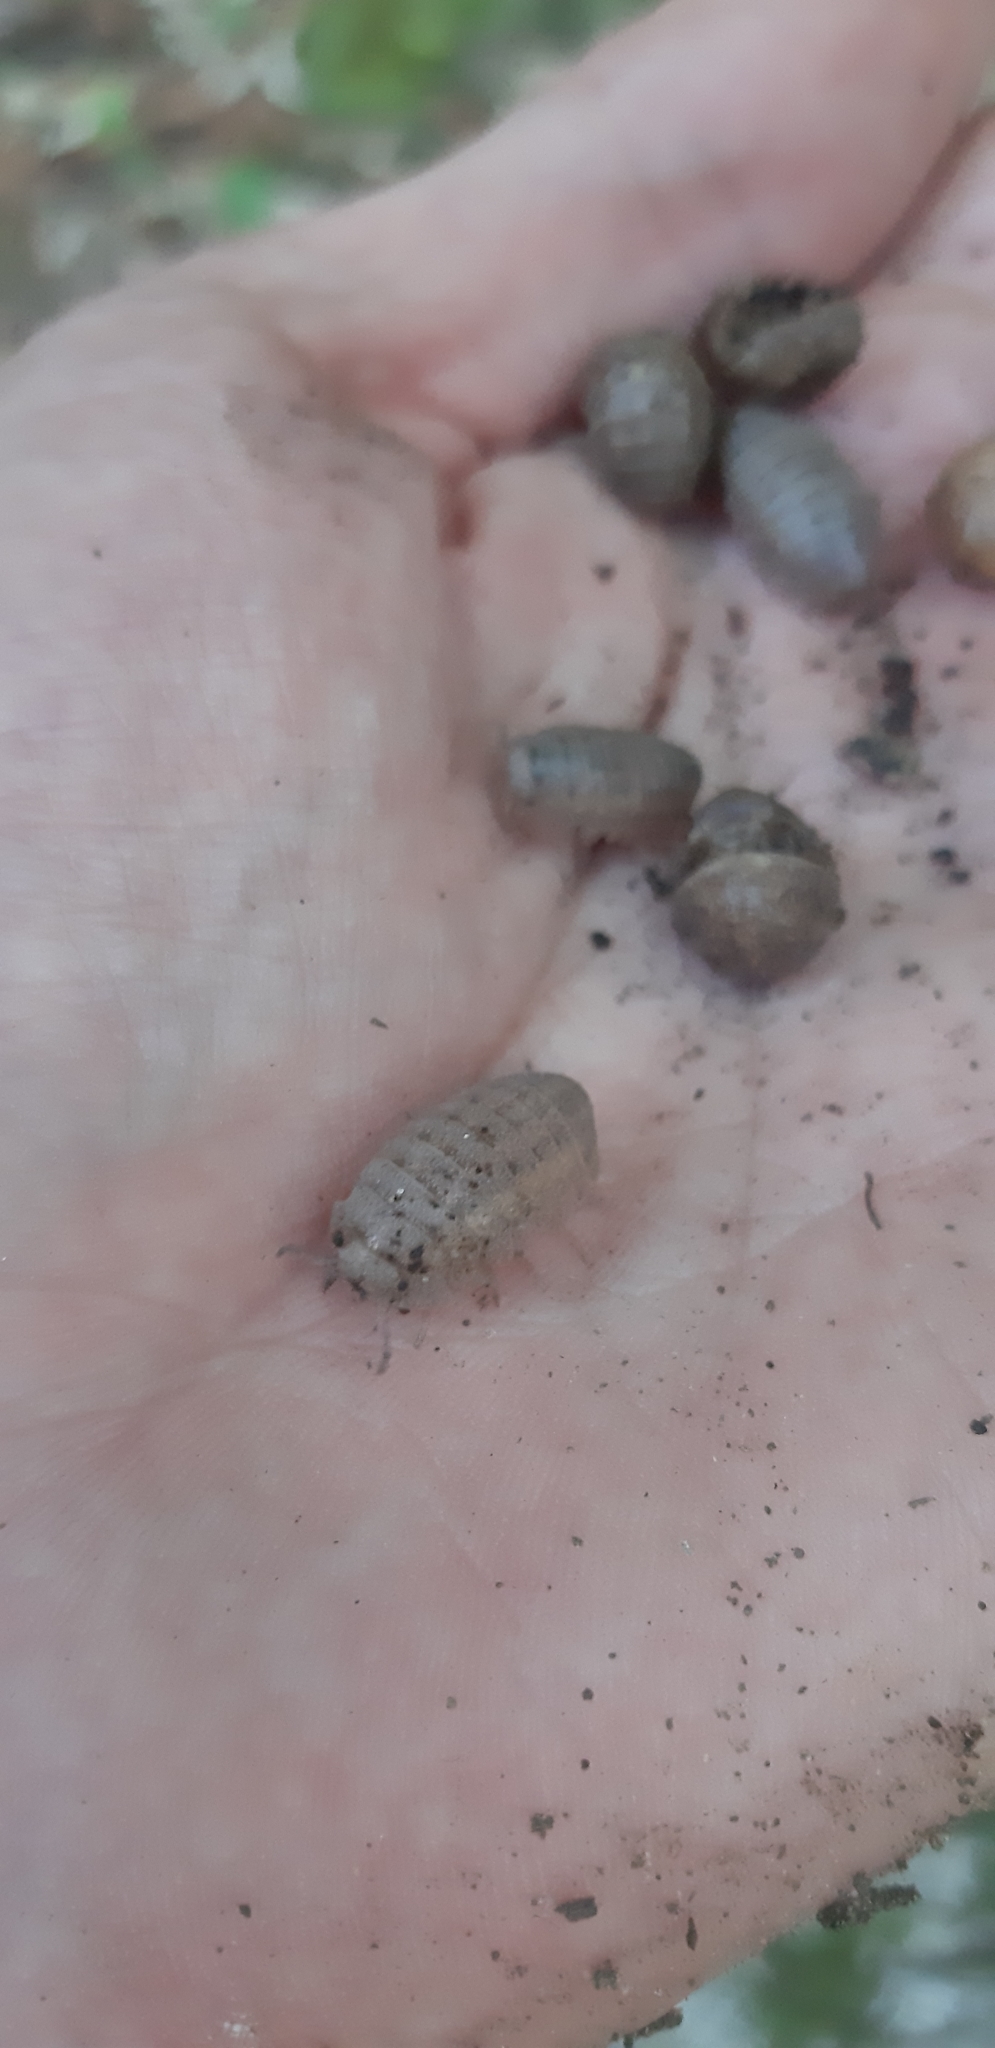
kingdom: Animalia
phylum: Arthropoda
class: Malacostraca
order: Isopoda
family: Tylidae
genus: Helleria
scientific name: Helleria brevicornis
